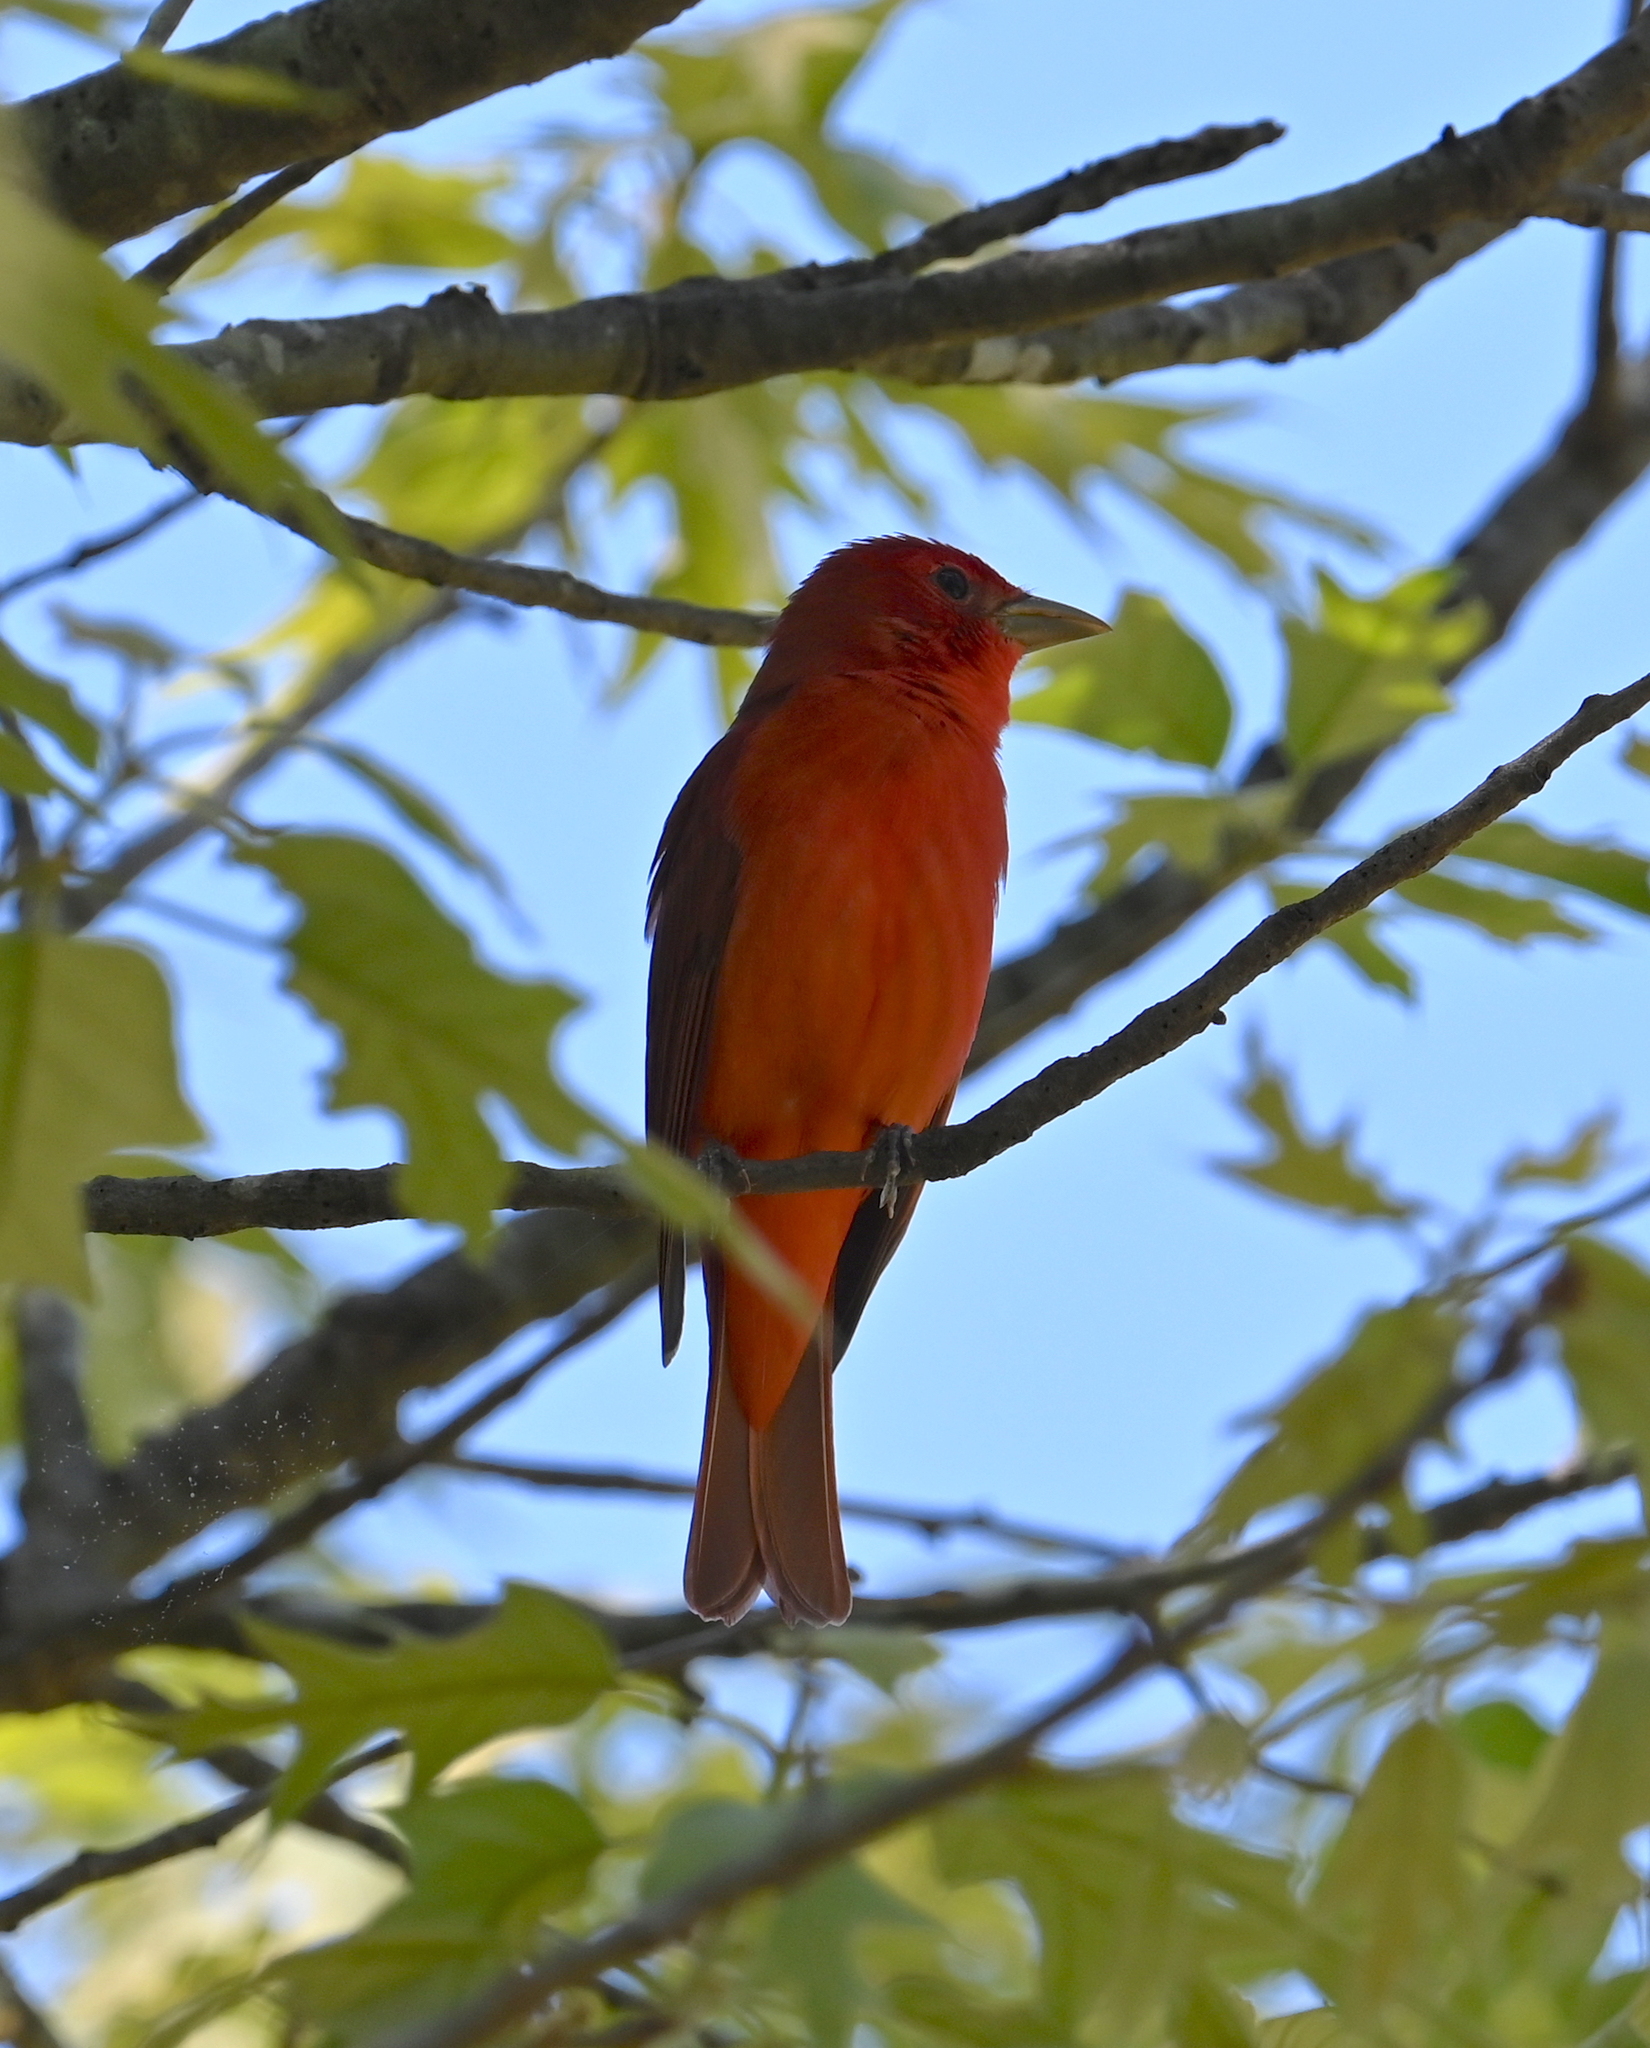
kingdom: Animalia
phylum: Chordata
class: Aves
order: Passeriformes
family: Cardinalidae
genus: Piranga
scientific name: Piranga rubra
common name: Summer tanager
